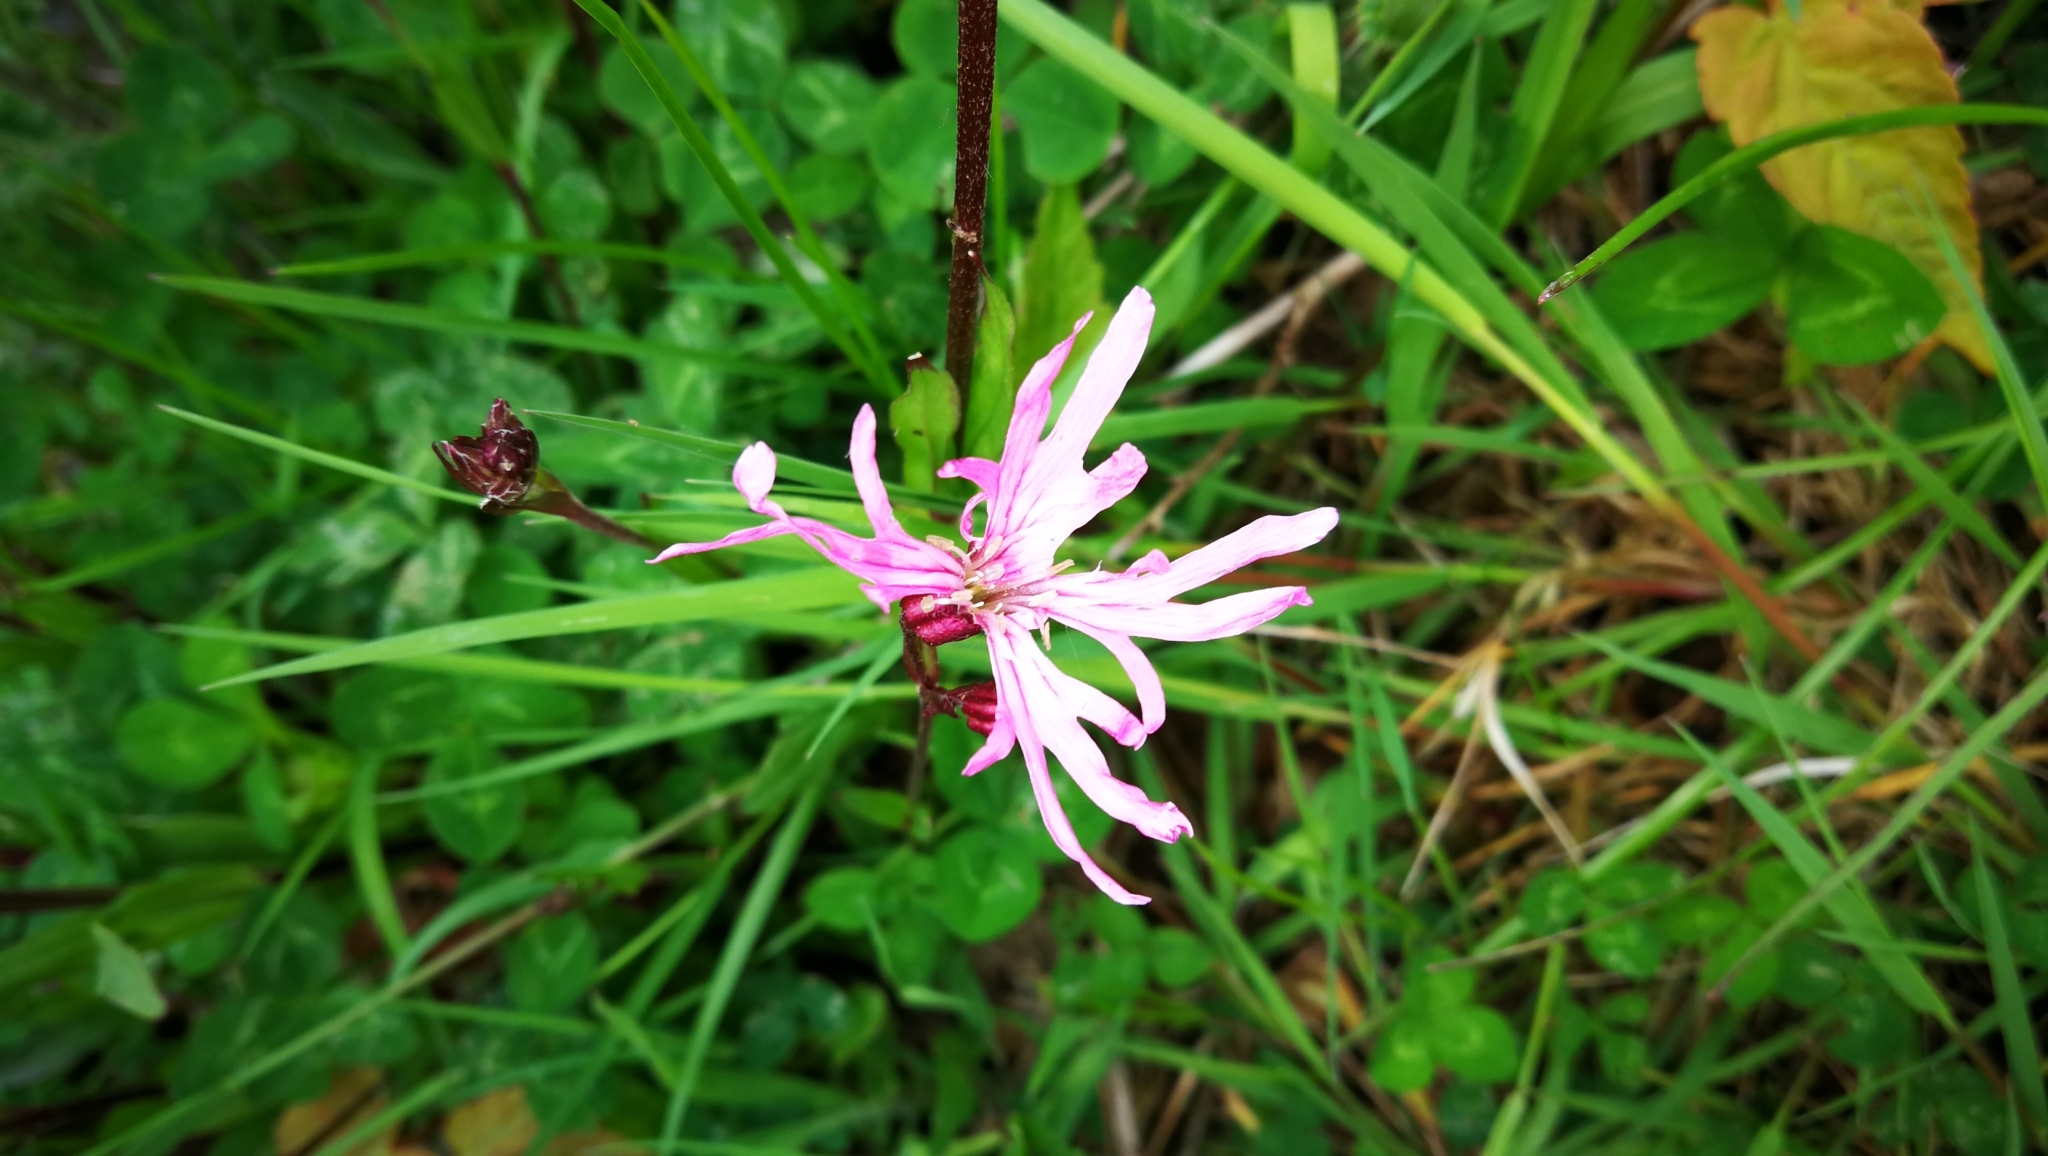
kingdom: Plantae
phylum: Tracheophyta
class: Magnoliopsida
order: Caryophyllales
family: Caryophyllaceae
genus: Silene
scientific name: Silene flos-cuculi
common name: Ragged-robin
